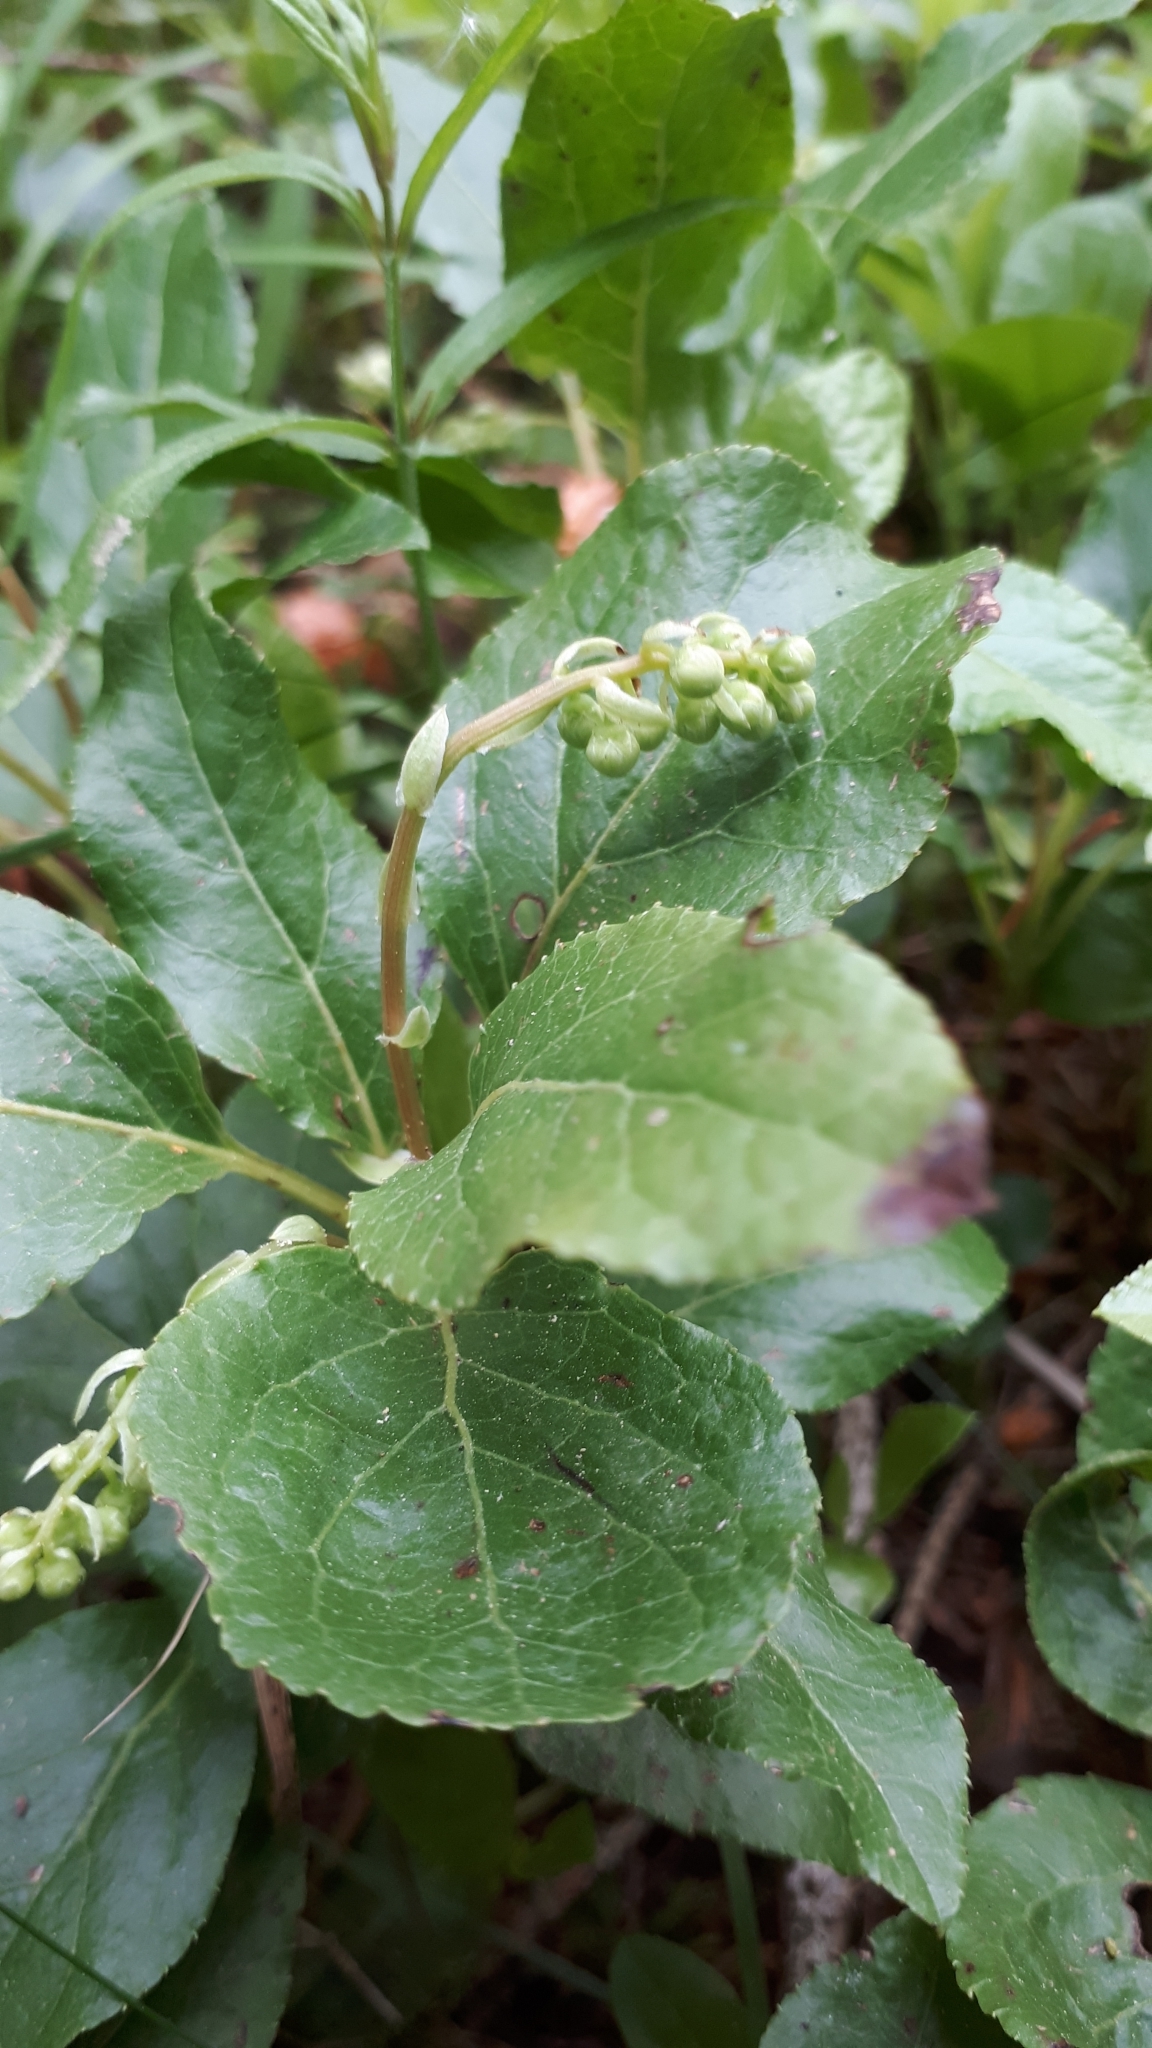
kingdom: Plantae
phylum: Tracheophyta
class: Magnoliopsida
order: Ericales
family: Ericaceae
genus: Orthilia
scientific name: Orthilia secunda
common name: One-sided orthilia
